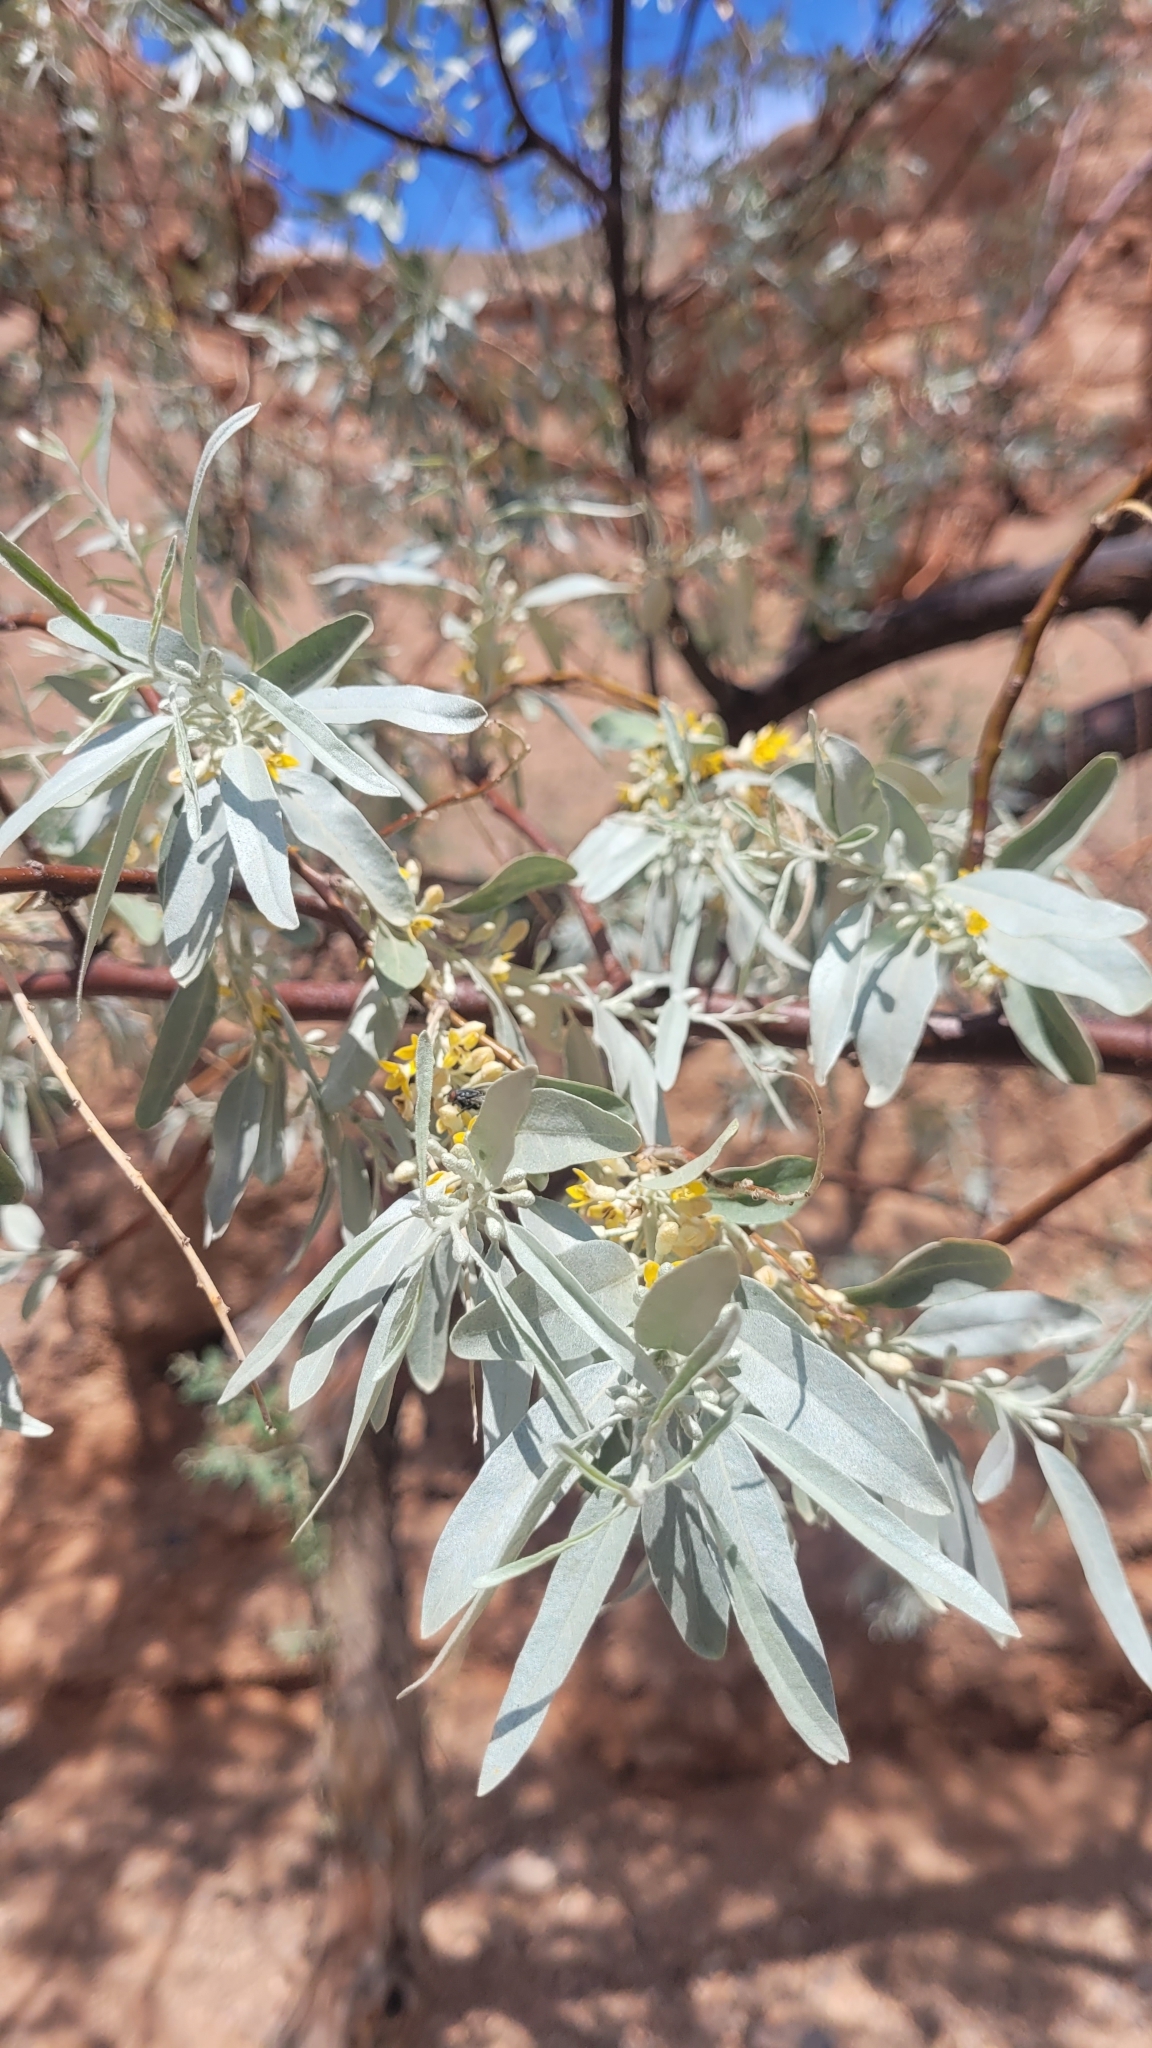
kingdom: Plantae
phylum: Tracheophyta
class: Magnoliopsida
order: Rosales
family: Elaeagnaceae
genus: Elaeagnus
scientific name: Elaeagnus angustifolia
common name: Russian olive
